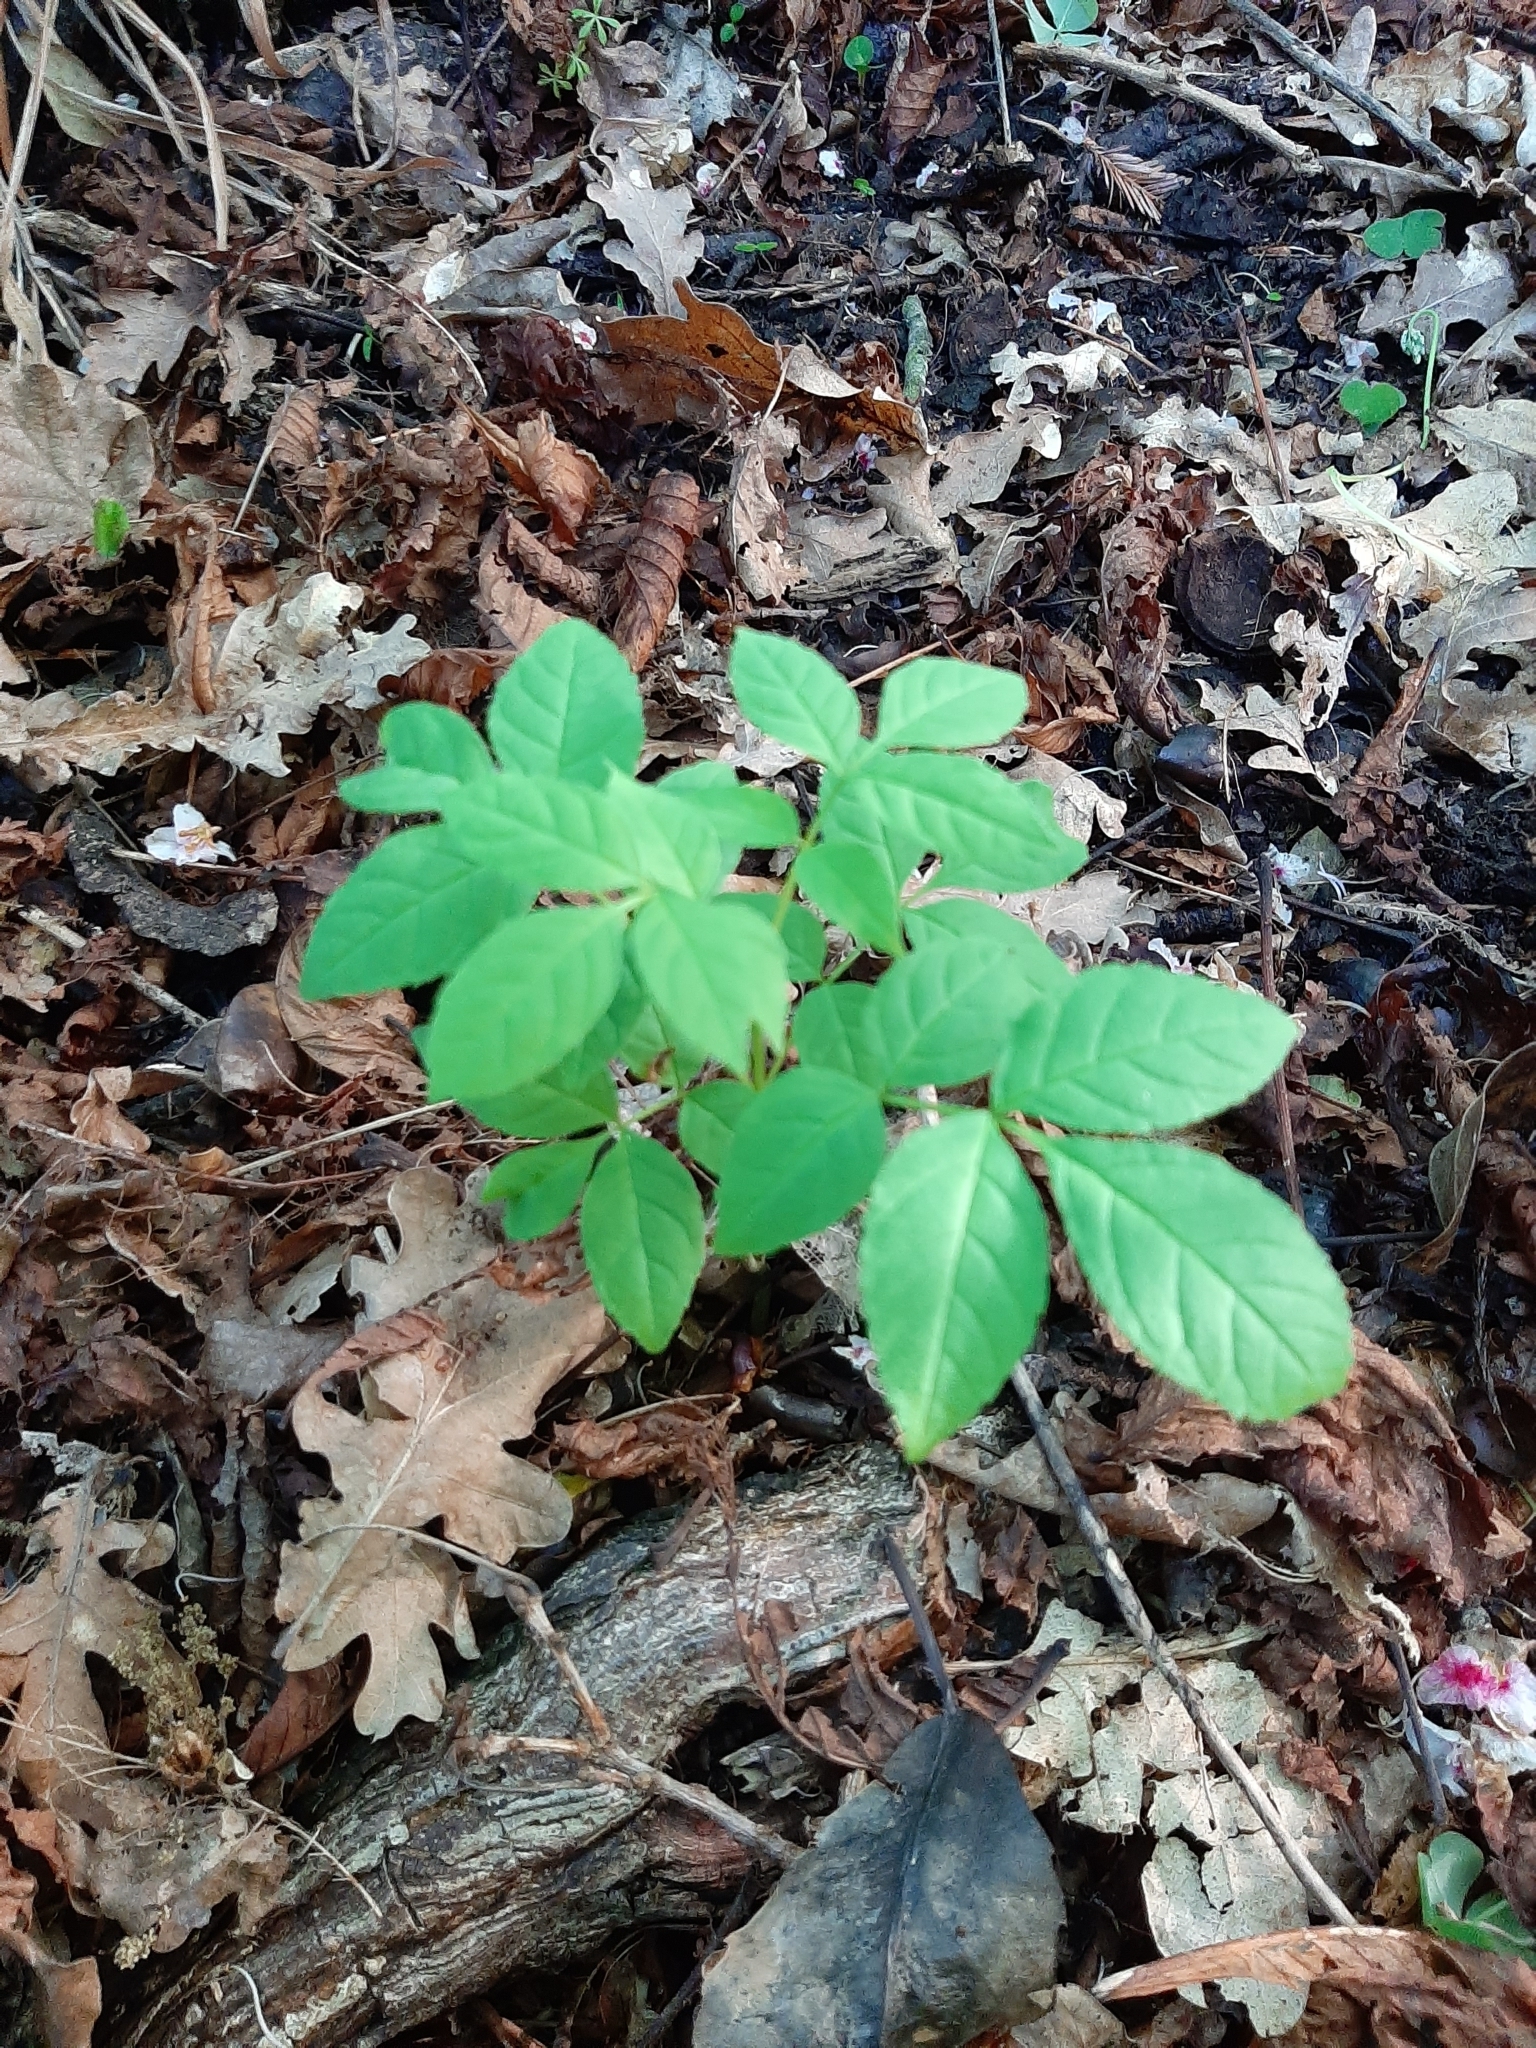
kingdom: Plantae
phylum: Tracheophyta
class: Magnoliopsida
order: Lamiales
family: Oleaceae
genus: Fraxinus
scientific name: Fraxinus excelsior
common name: European ash
